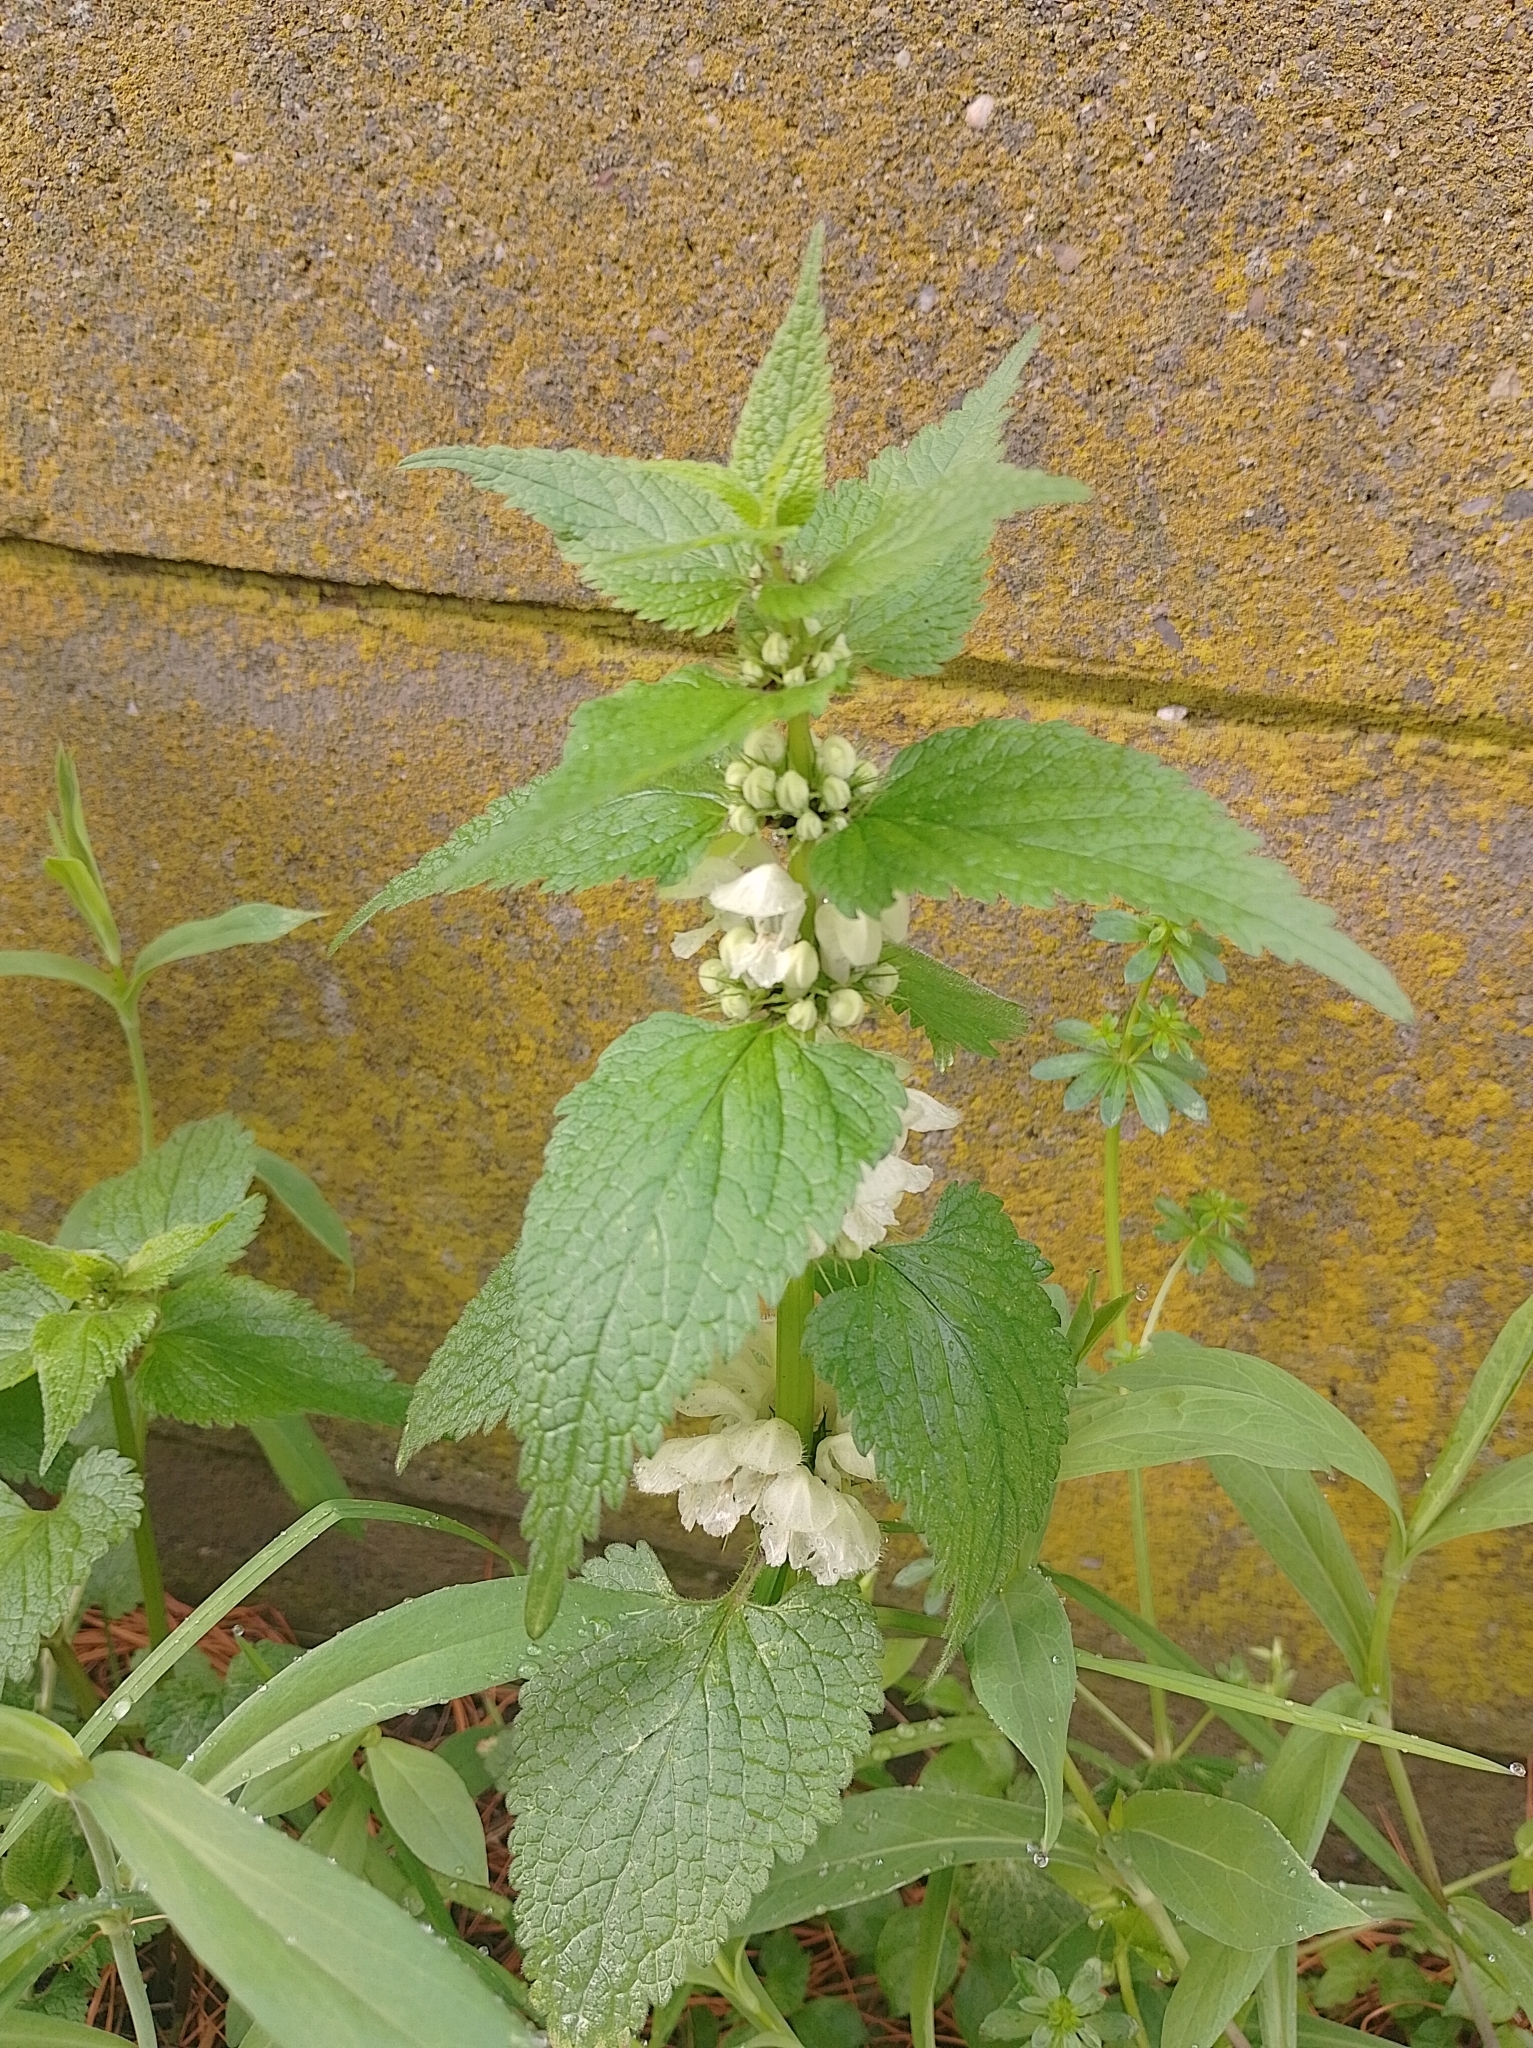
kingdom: Plantae
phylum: Tracheophyta
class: Magnoliopsida
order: Lamiales
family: Lamiaceae
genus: Lamium
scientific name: Lamium album
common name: White dead-nettle
